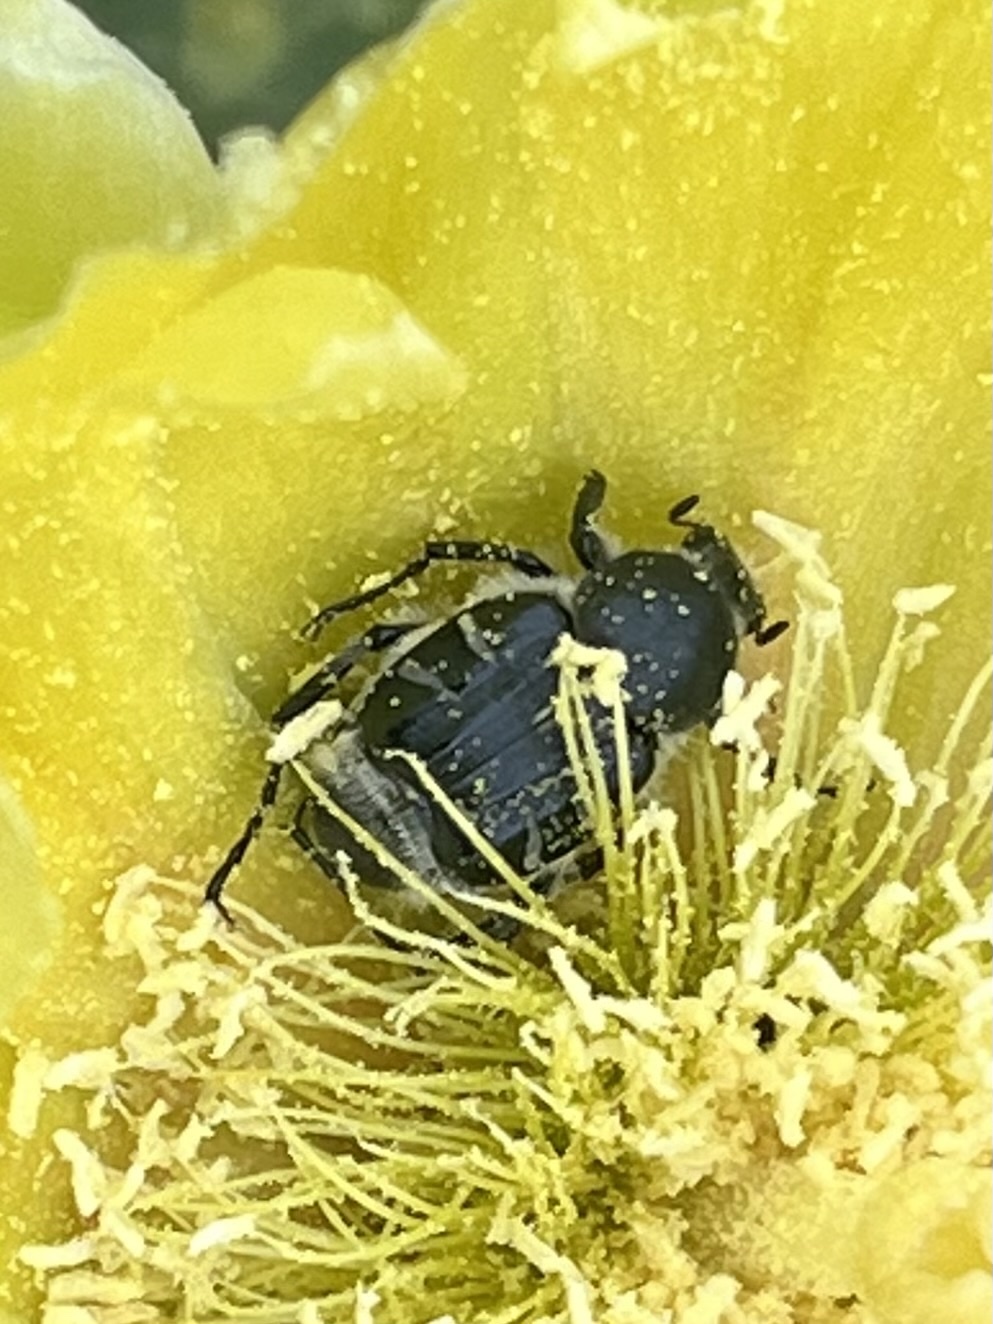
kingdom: Animalia
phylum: Arthropoda
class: Insecta
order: Coleoptera
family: Scarabaeidae
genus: Trichiotinus
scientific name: Trichiotinus texanus
